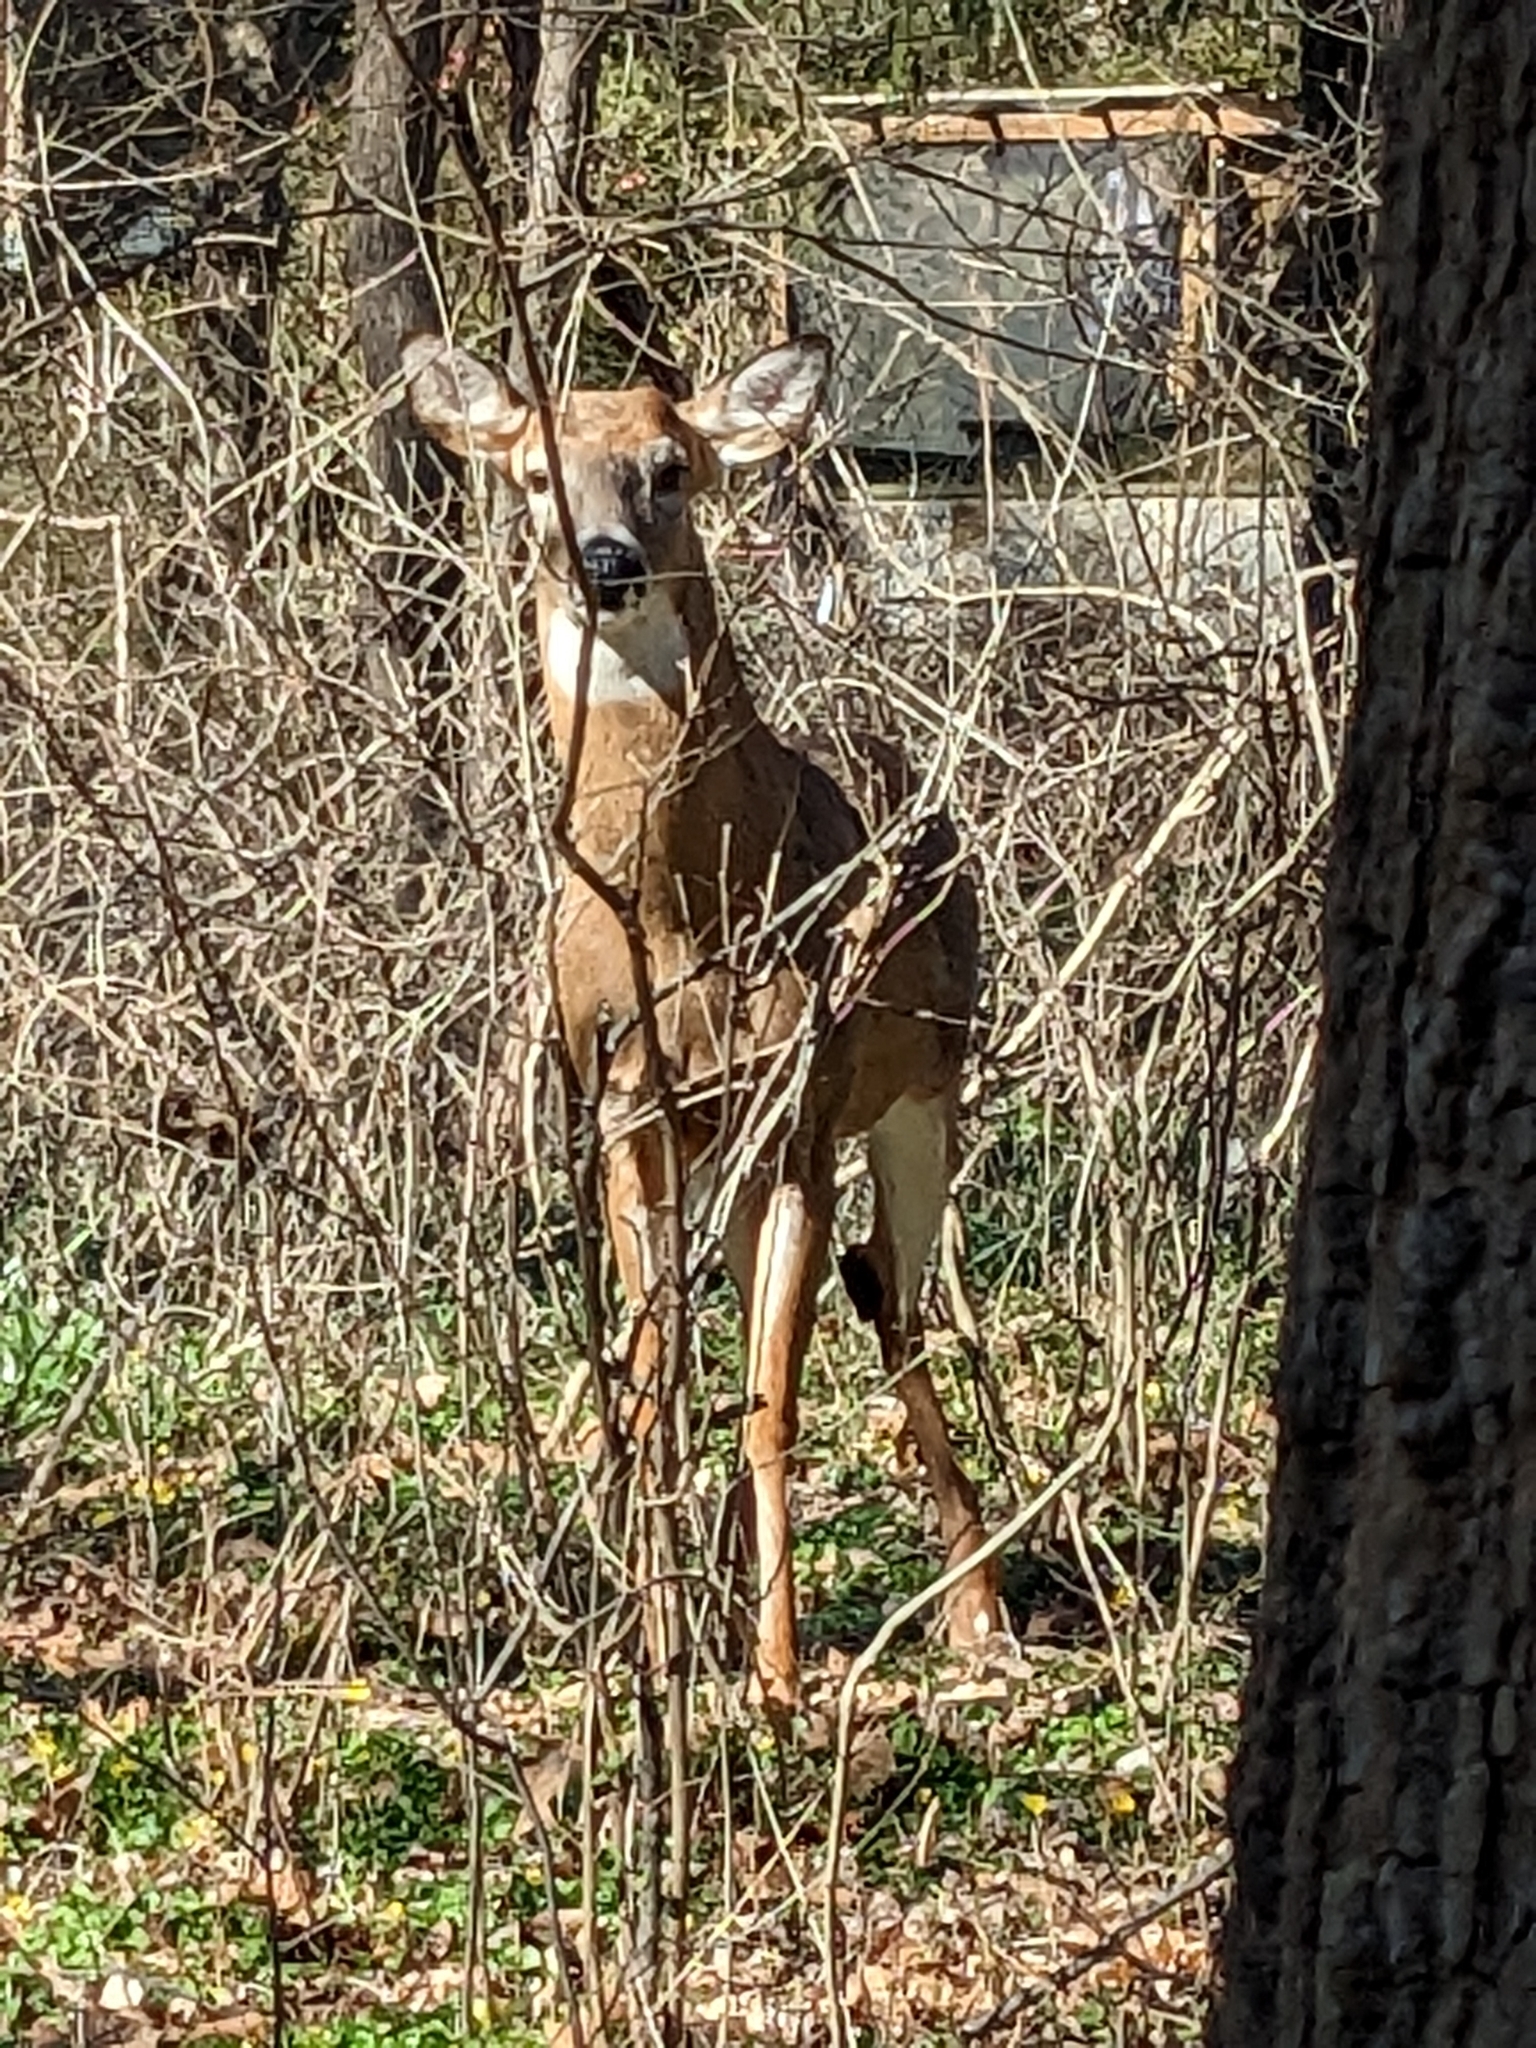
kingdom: Animalia
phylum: Chordata
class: Mammalia
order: Artiodactyla
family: Cervidae
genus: Odocoileus
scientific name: Odocoileus virginianus
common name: White-tailed deer
